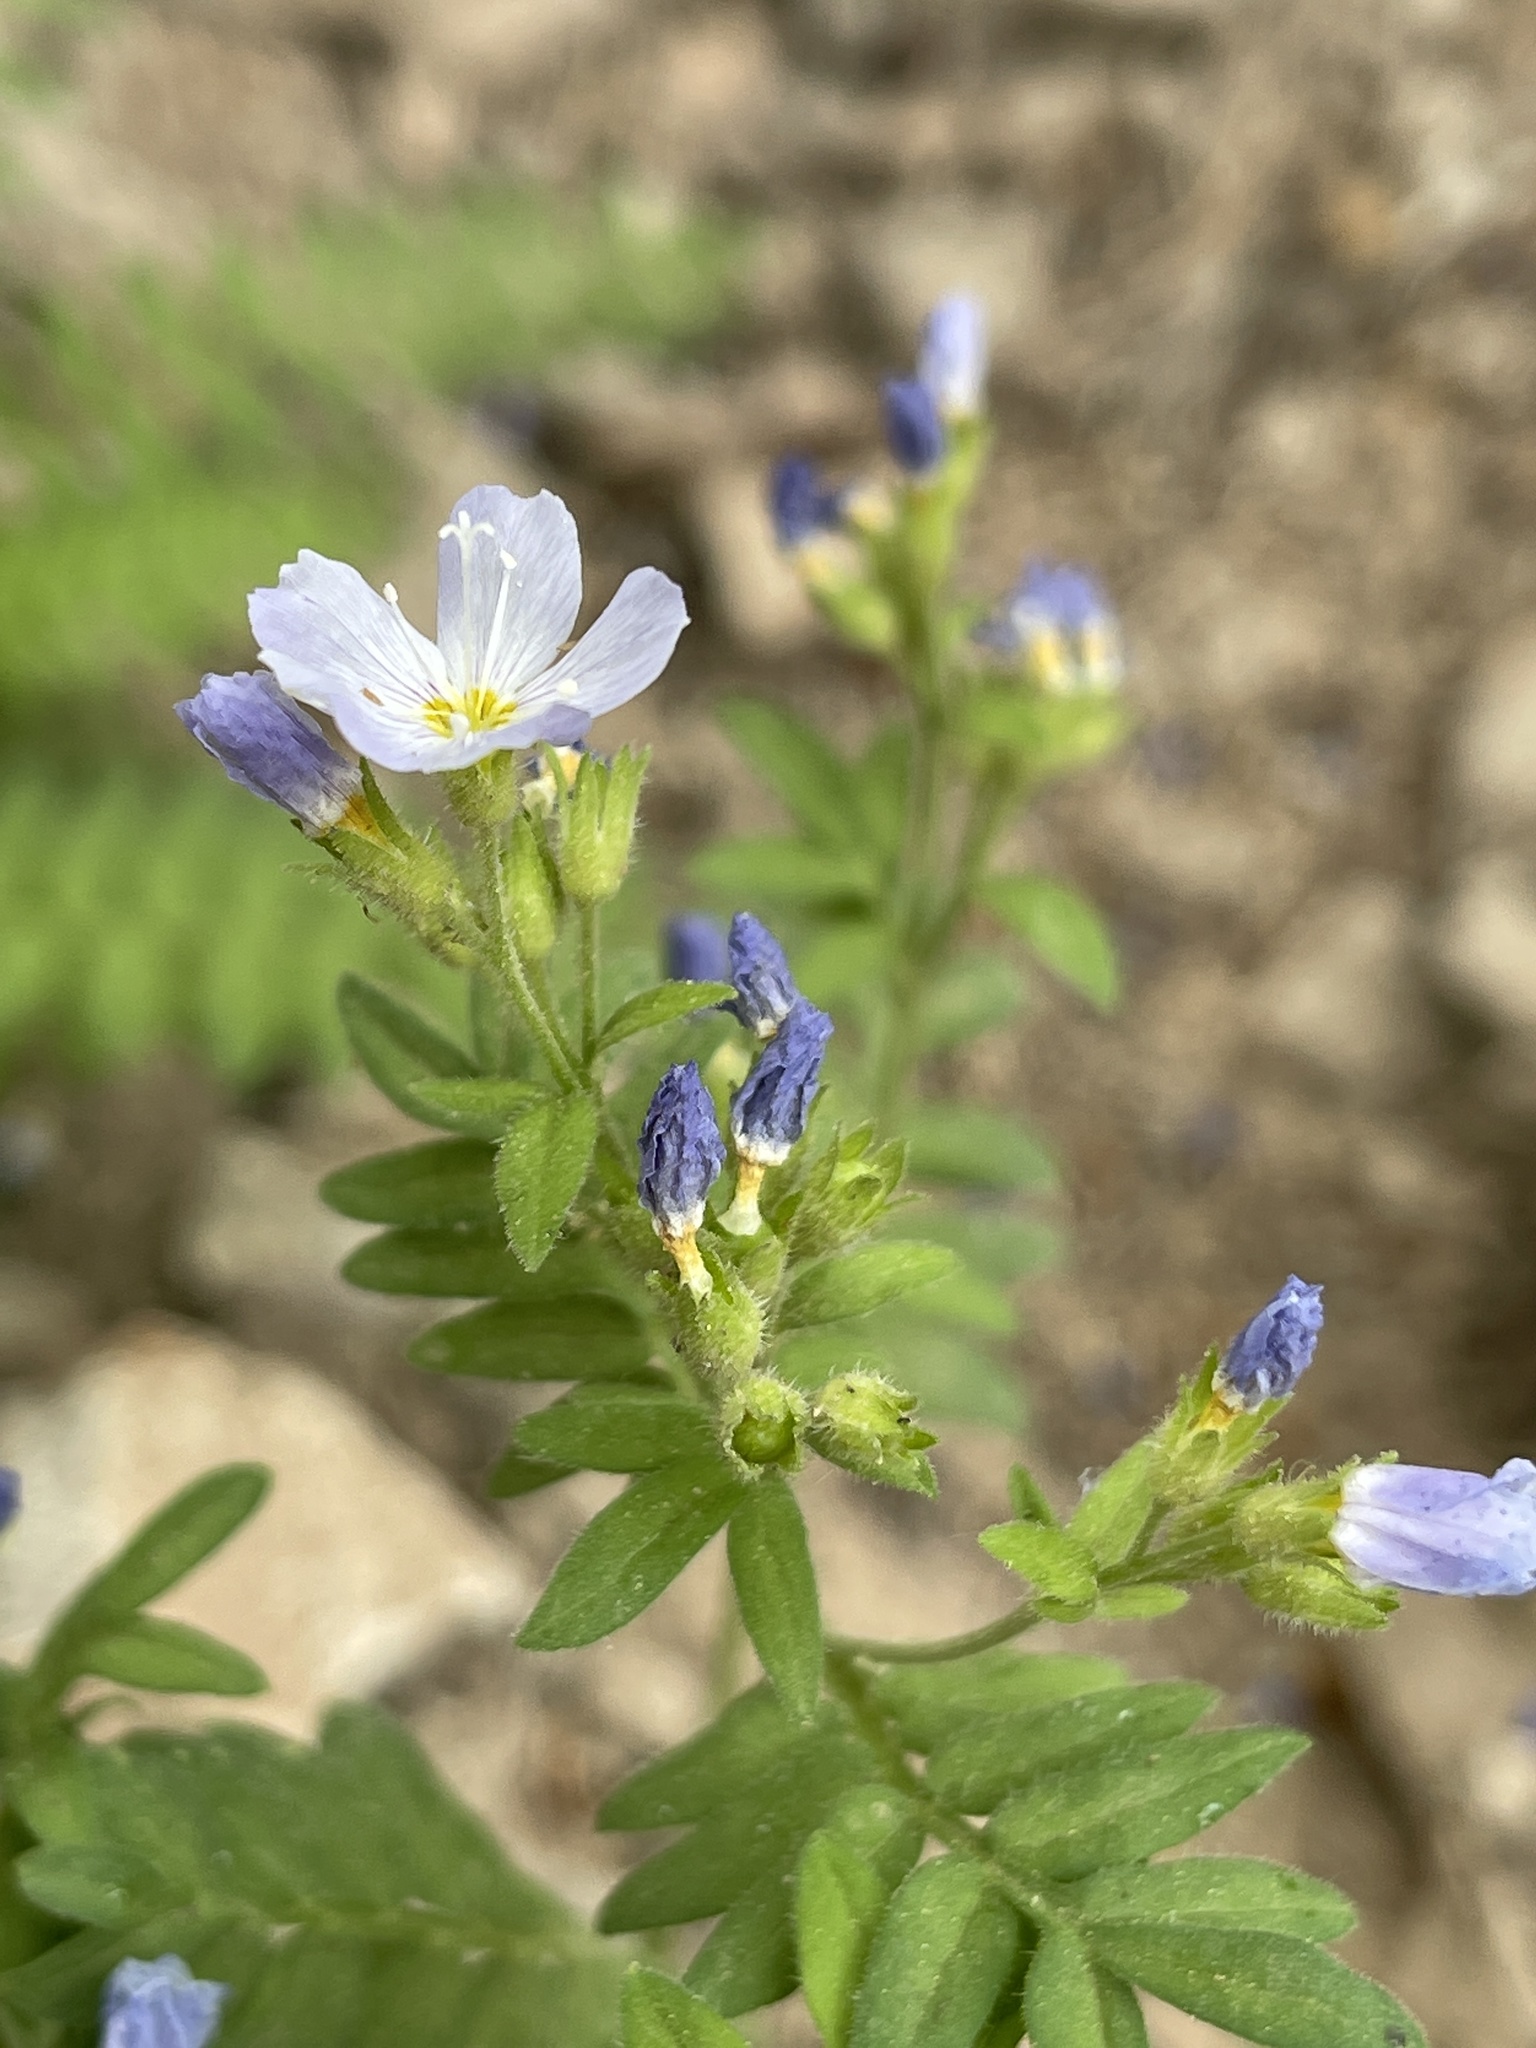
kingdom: Plantae
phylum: Tracheophyta
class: Magnoliopsida
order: Ericales
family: Polemoniaceae
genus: Polemonium
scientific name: Polemonium pulcherrimum
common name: Short jacob's-ladder
